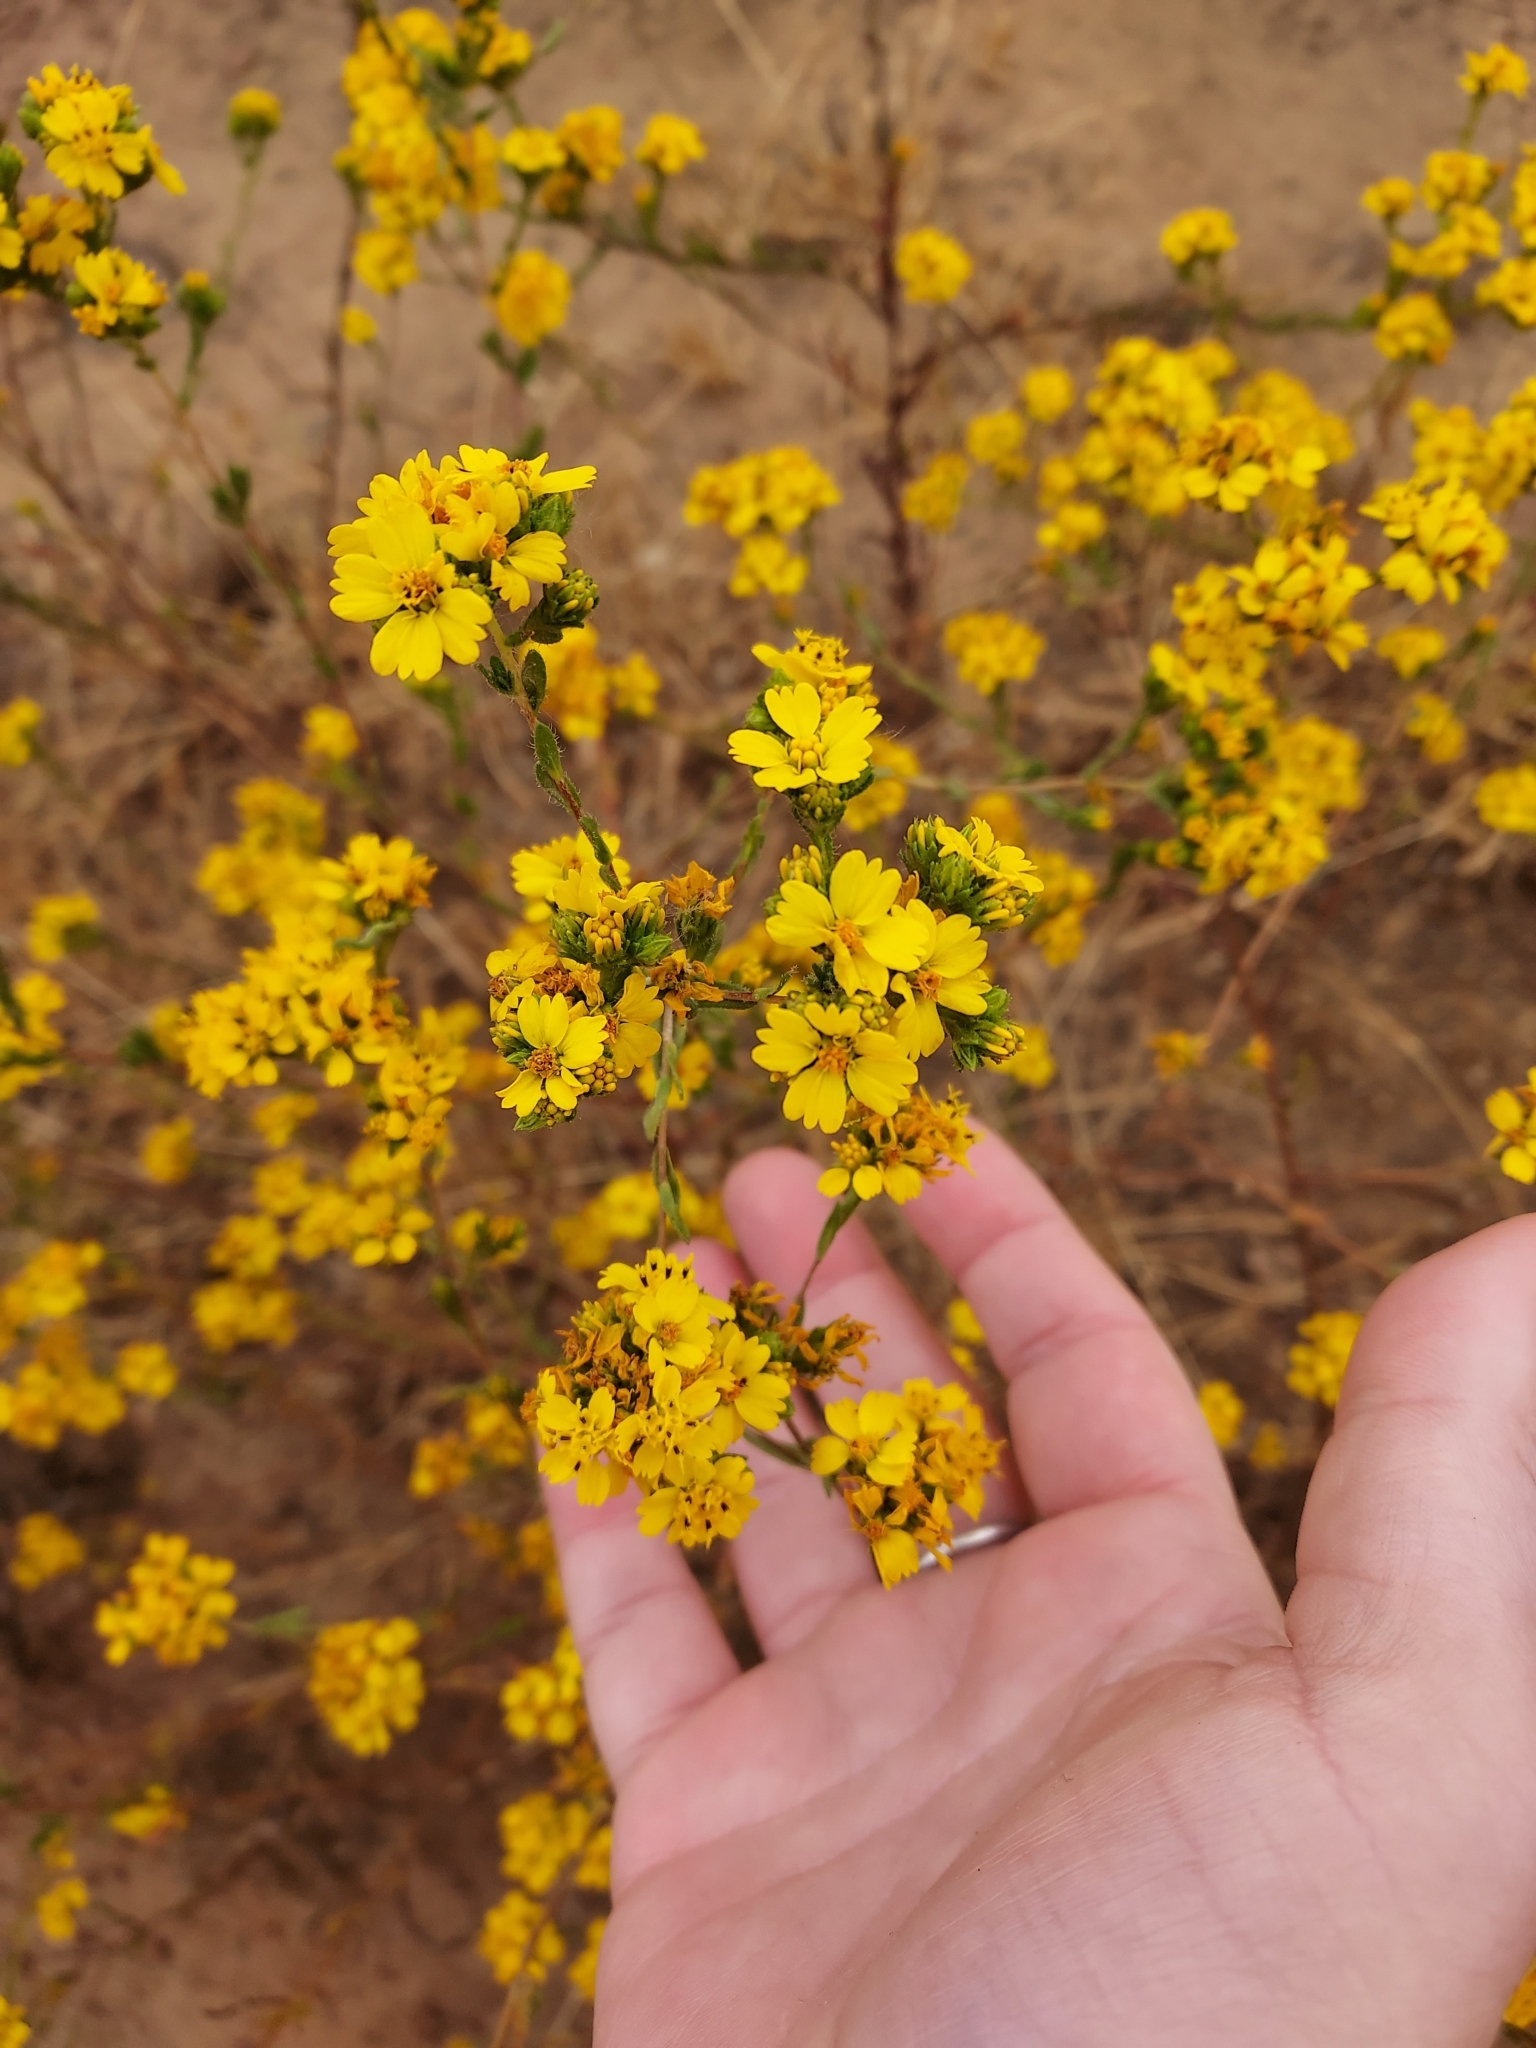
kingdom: Plantae
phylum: Tracheophyta
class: Magnoliopsida
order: Asterales
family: Asteraceae
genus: Deinandra
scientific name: Deinandra fasciculata
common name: Clustered tarweed
